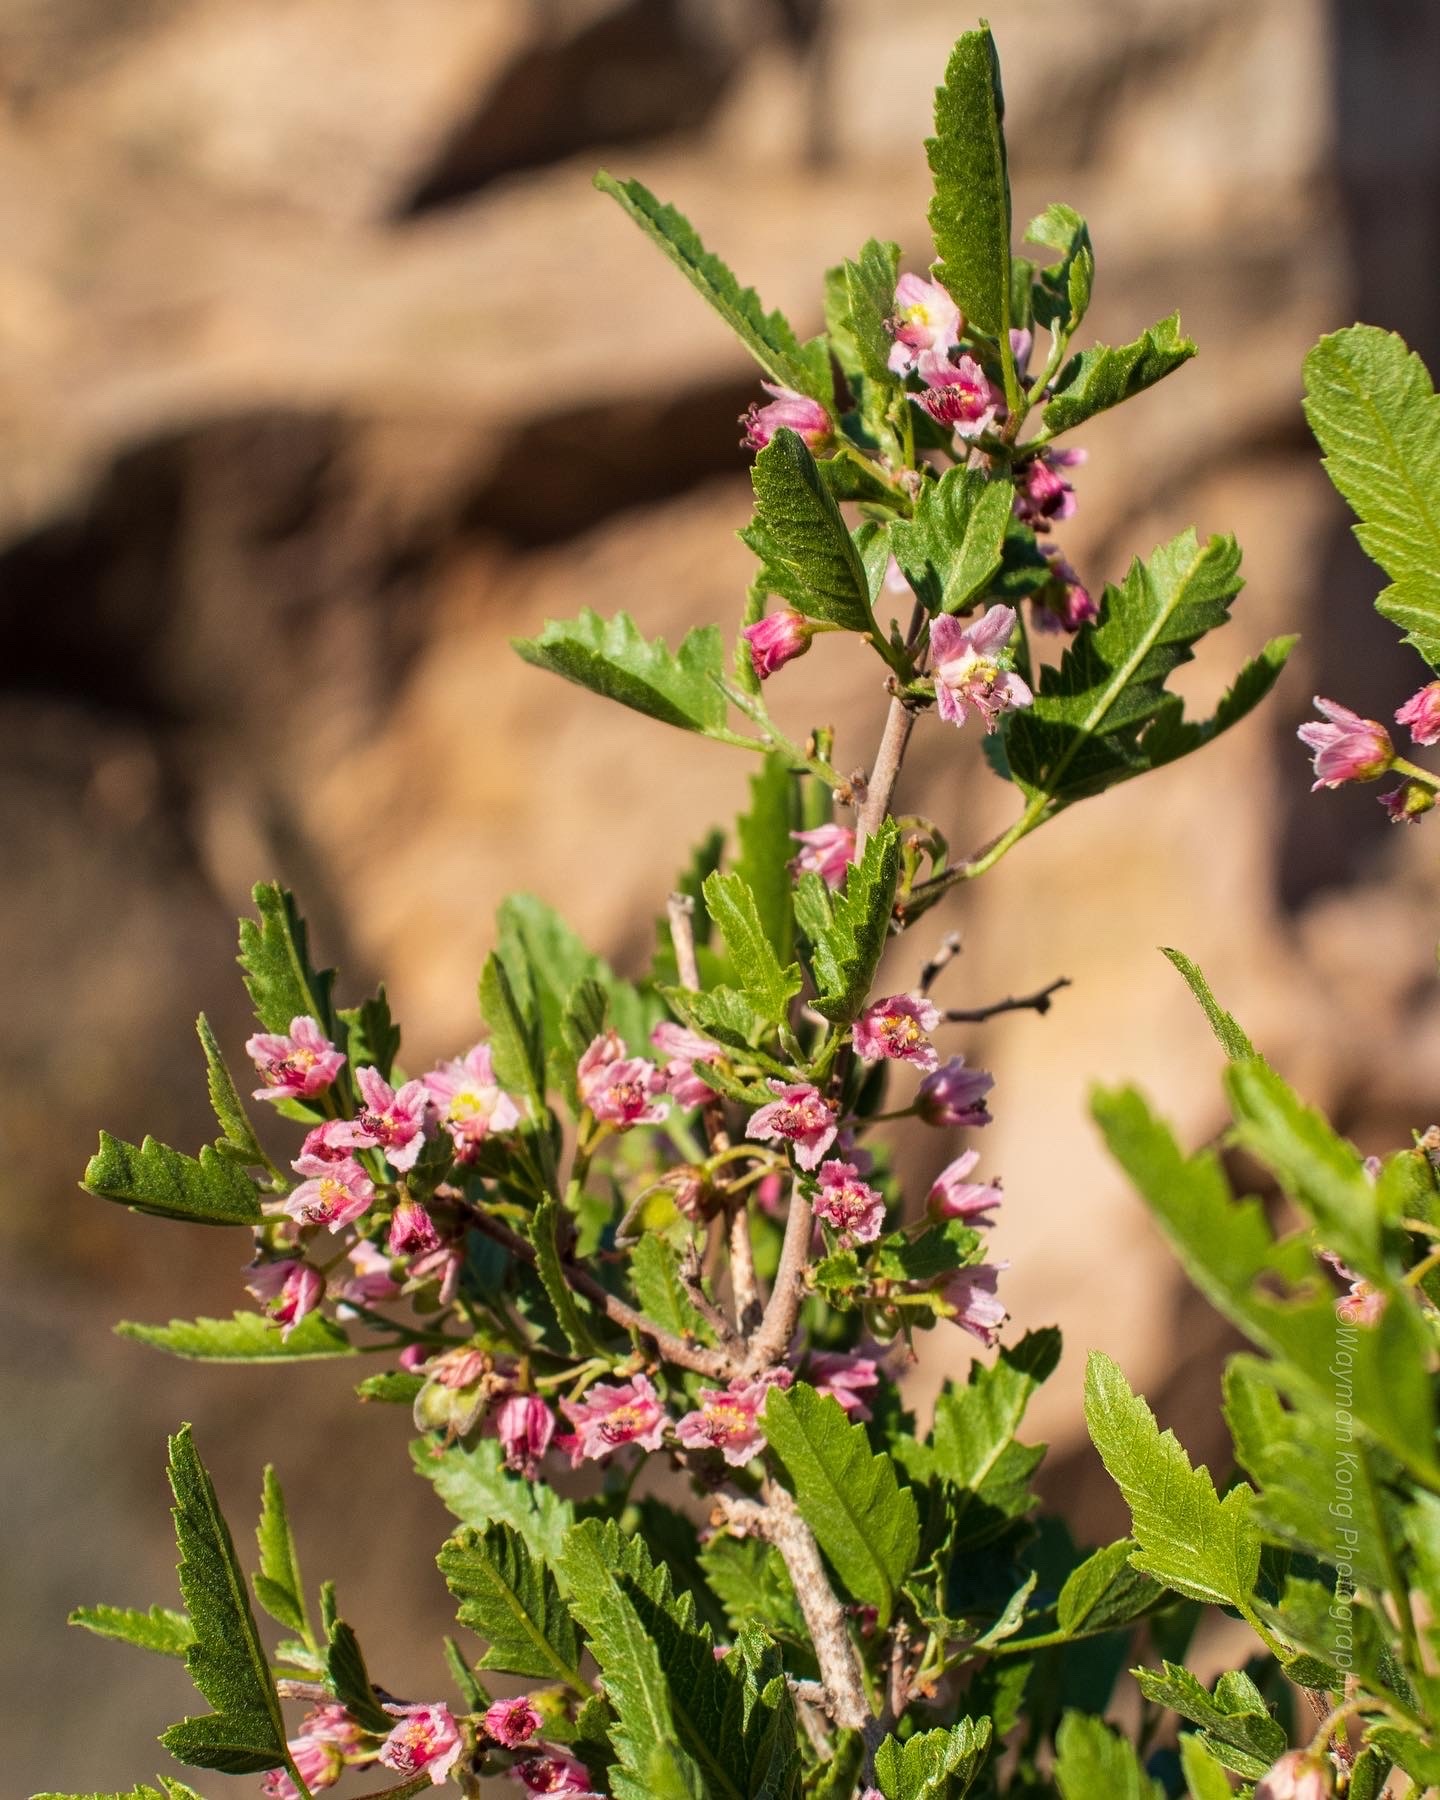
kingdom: Plantae
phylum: Tracheophyta
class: Magnoliopsida
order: Sapindales
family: Sapindaceae
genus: Bridgesia
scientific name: Bridgesia incisifolia
